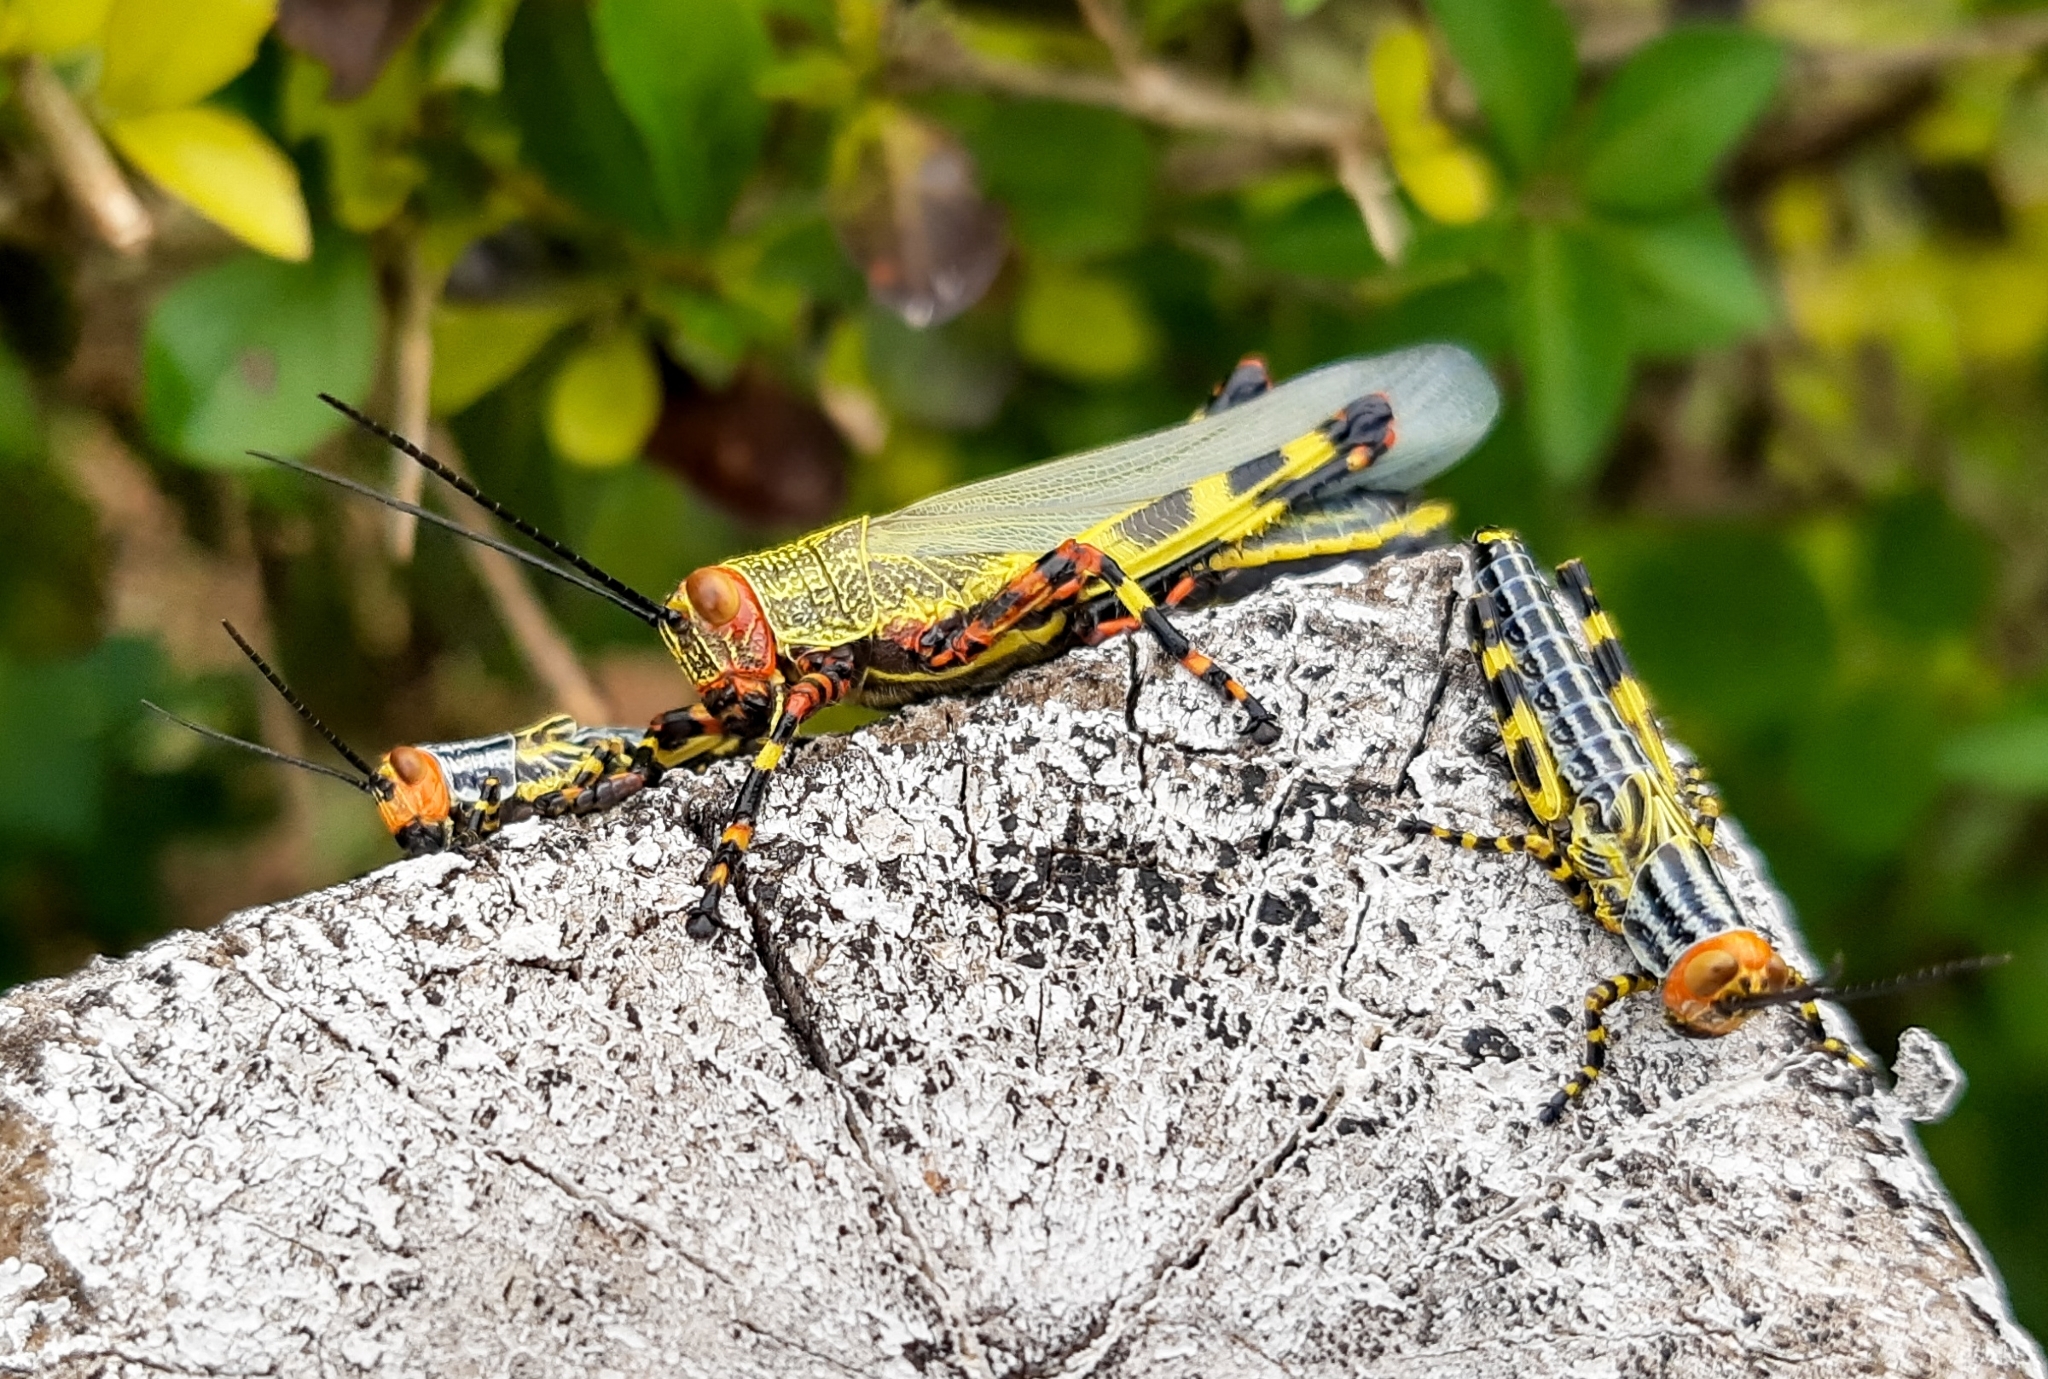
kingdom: Animalia
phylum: Arthropoda
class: Insecta
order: Orthoptera
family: Romaleidae
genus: Zoniopoda
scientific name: Zoniopoda tarsata
